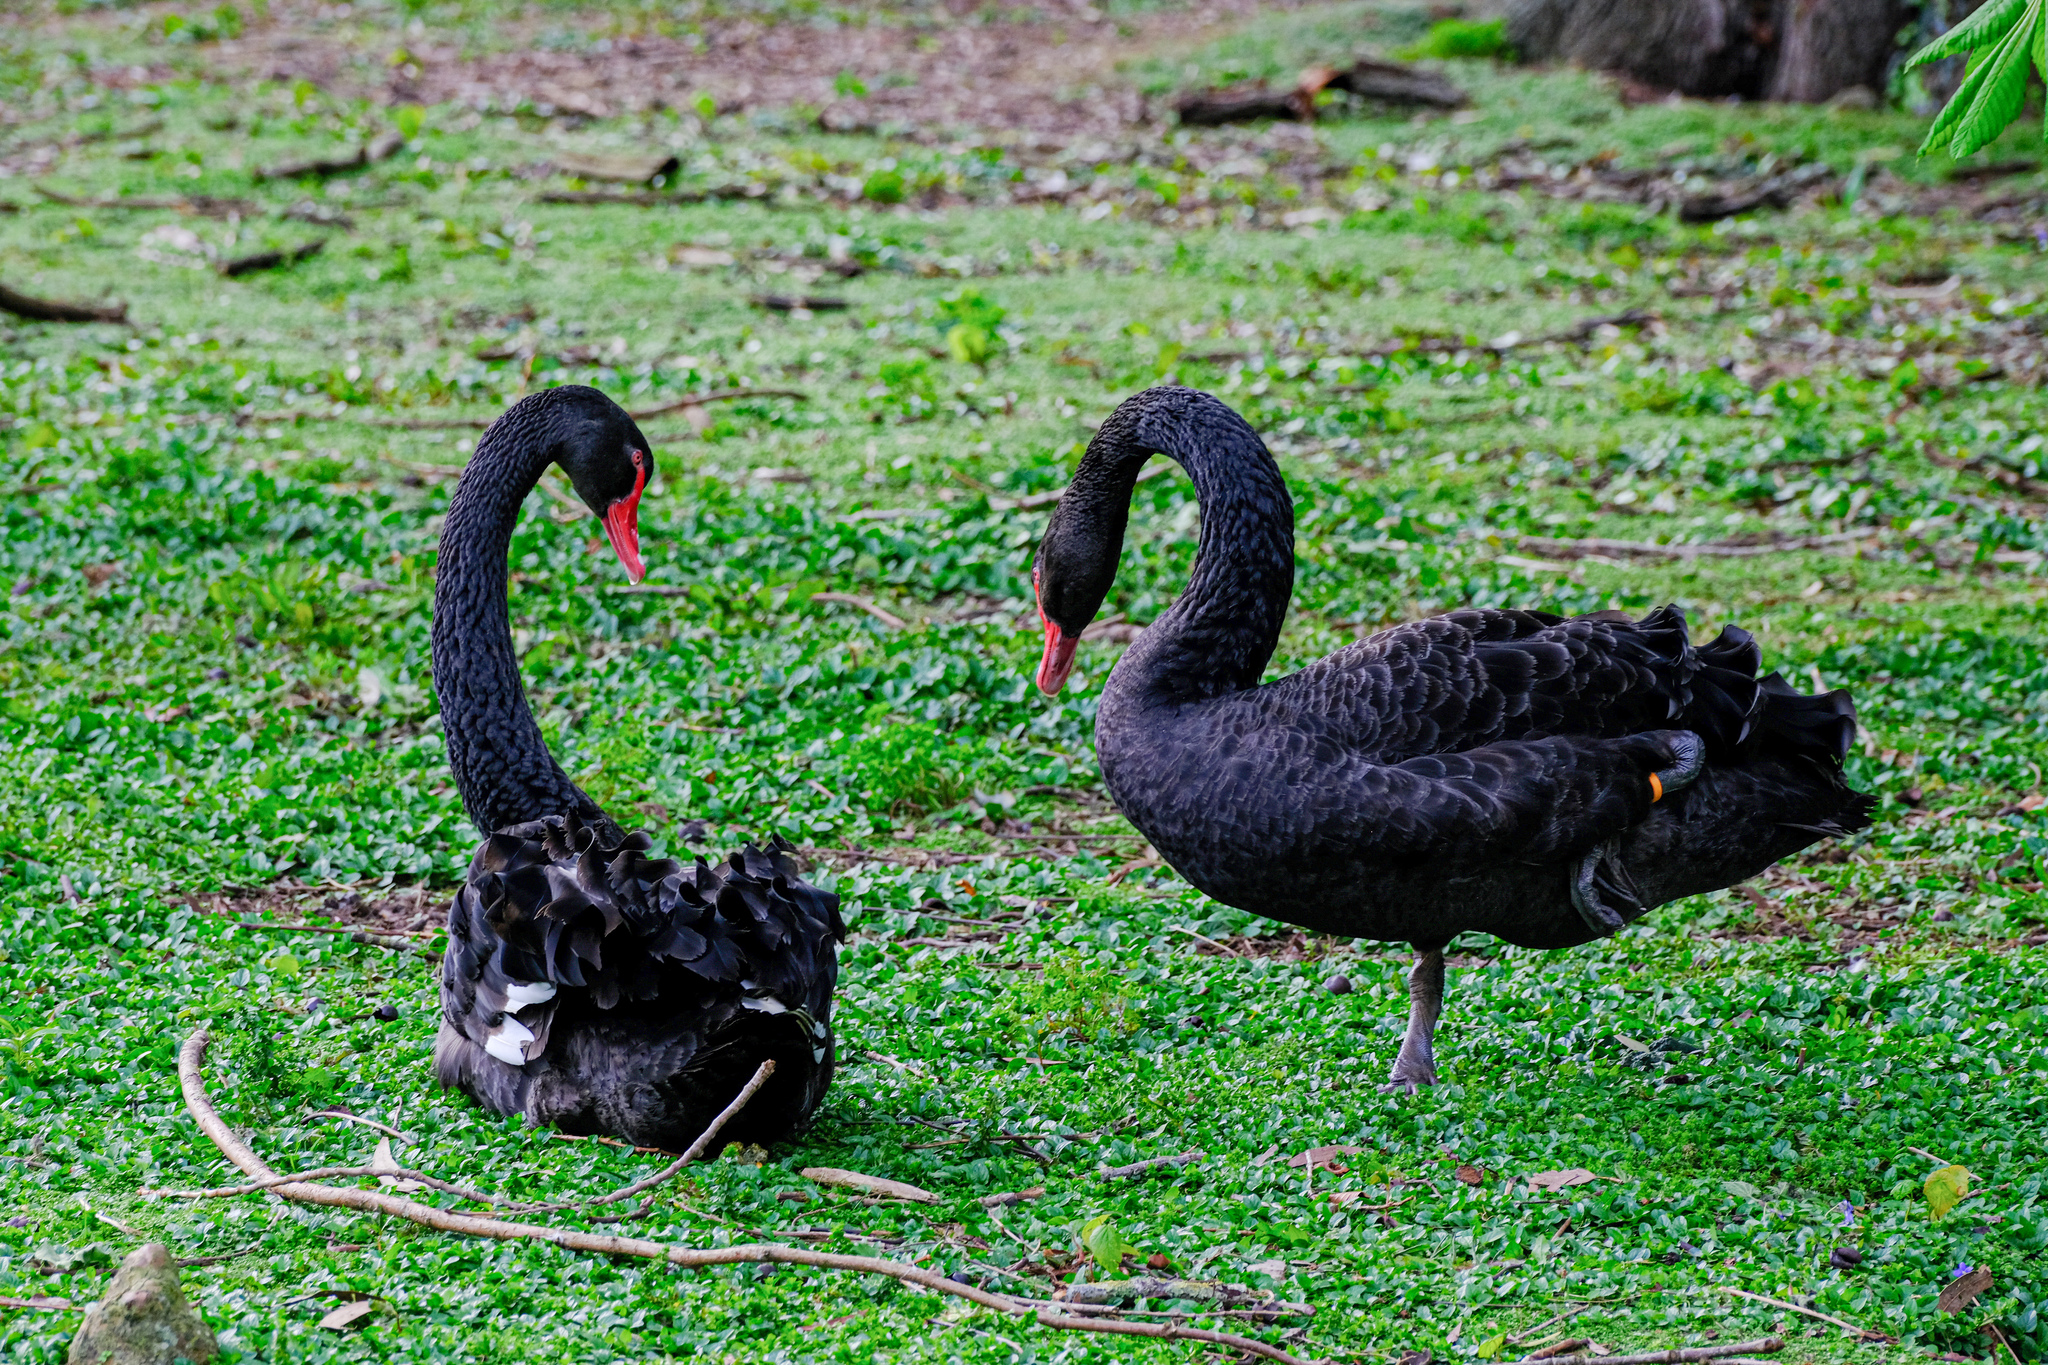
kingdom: Animalia
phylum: Chordata
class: Aves
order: Anseriformes
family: Anatidae
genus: Cygnus
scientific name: Cygnus atratus
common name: Black swan
